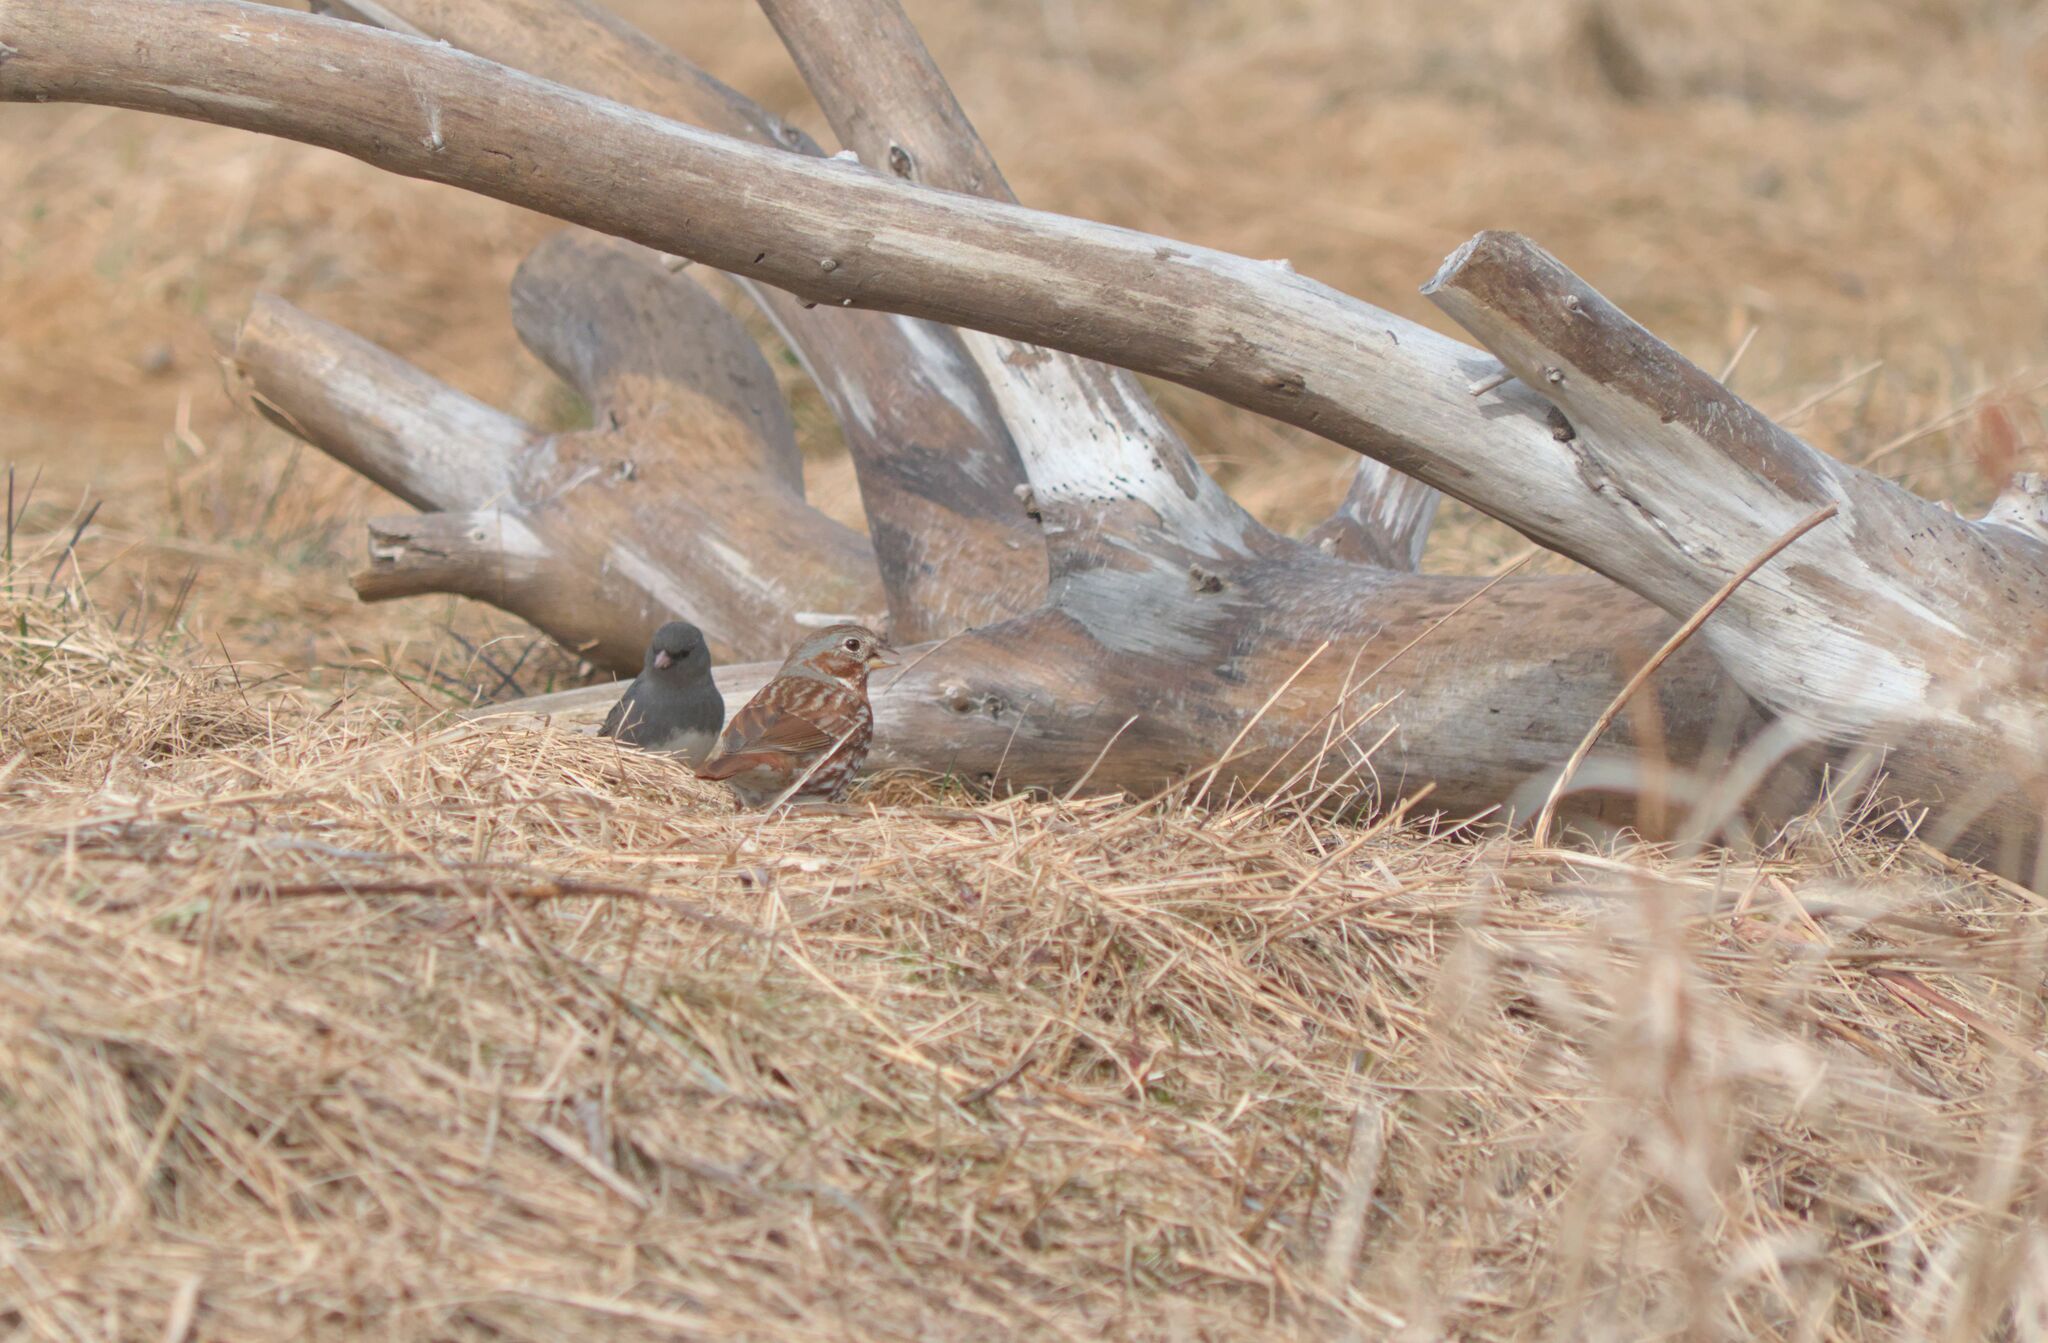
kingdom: Animalia
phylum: Chordata
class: Aves
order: Passeriformes
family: Passerellidae
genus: Passerella
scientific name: Passerella iliaca
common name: Fox sparrow
